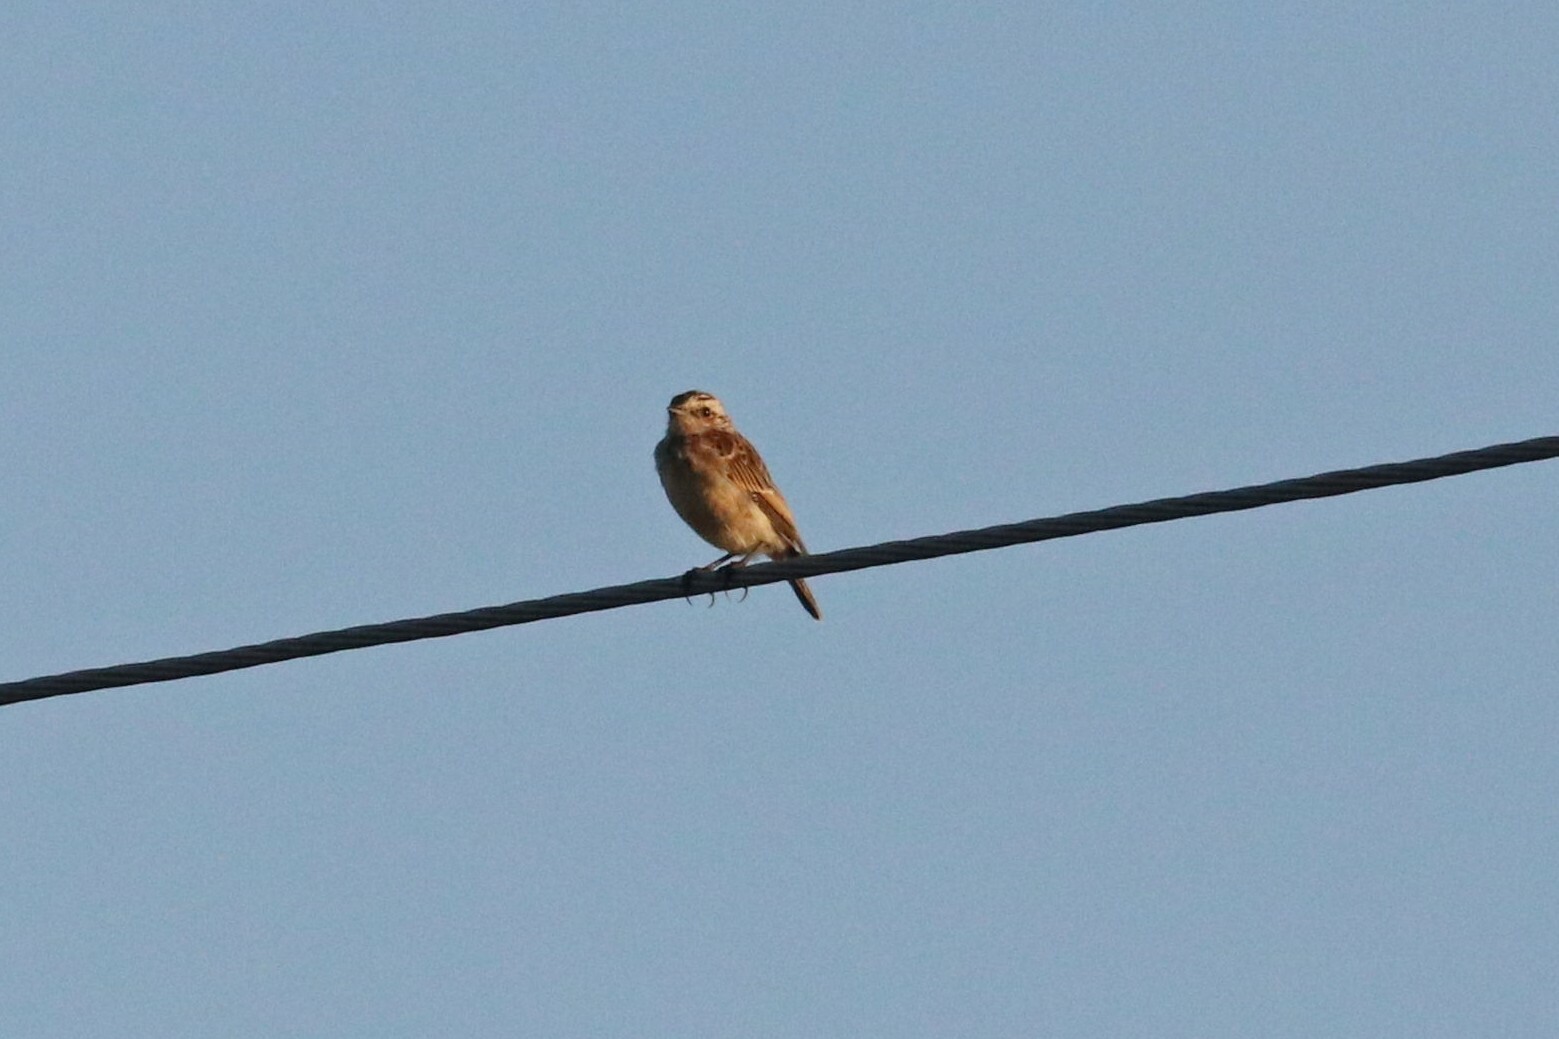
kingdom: Animalia
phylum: Chordata
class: Aves
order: Passeriformes
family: Muscicapidae
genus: Saxicola
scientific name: Saxicola rubetra
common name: Whinchat
